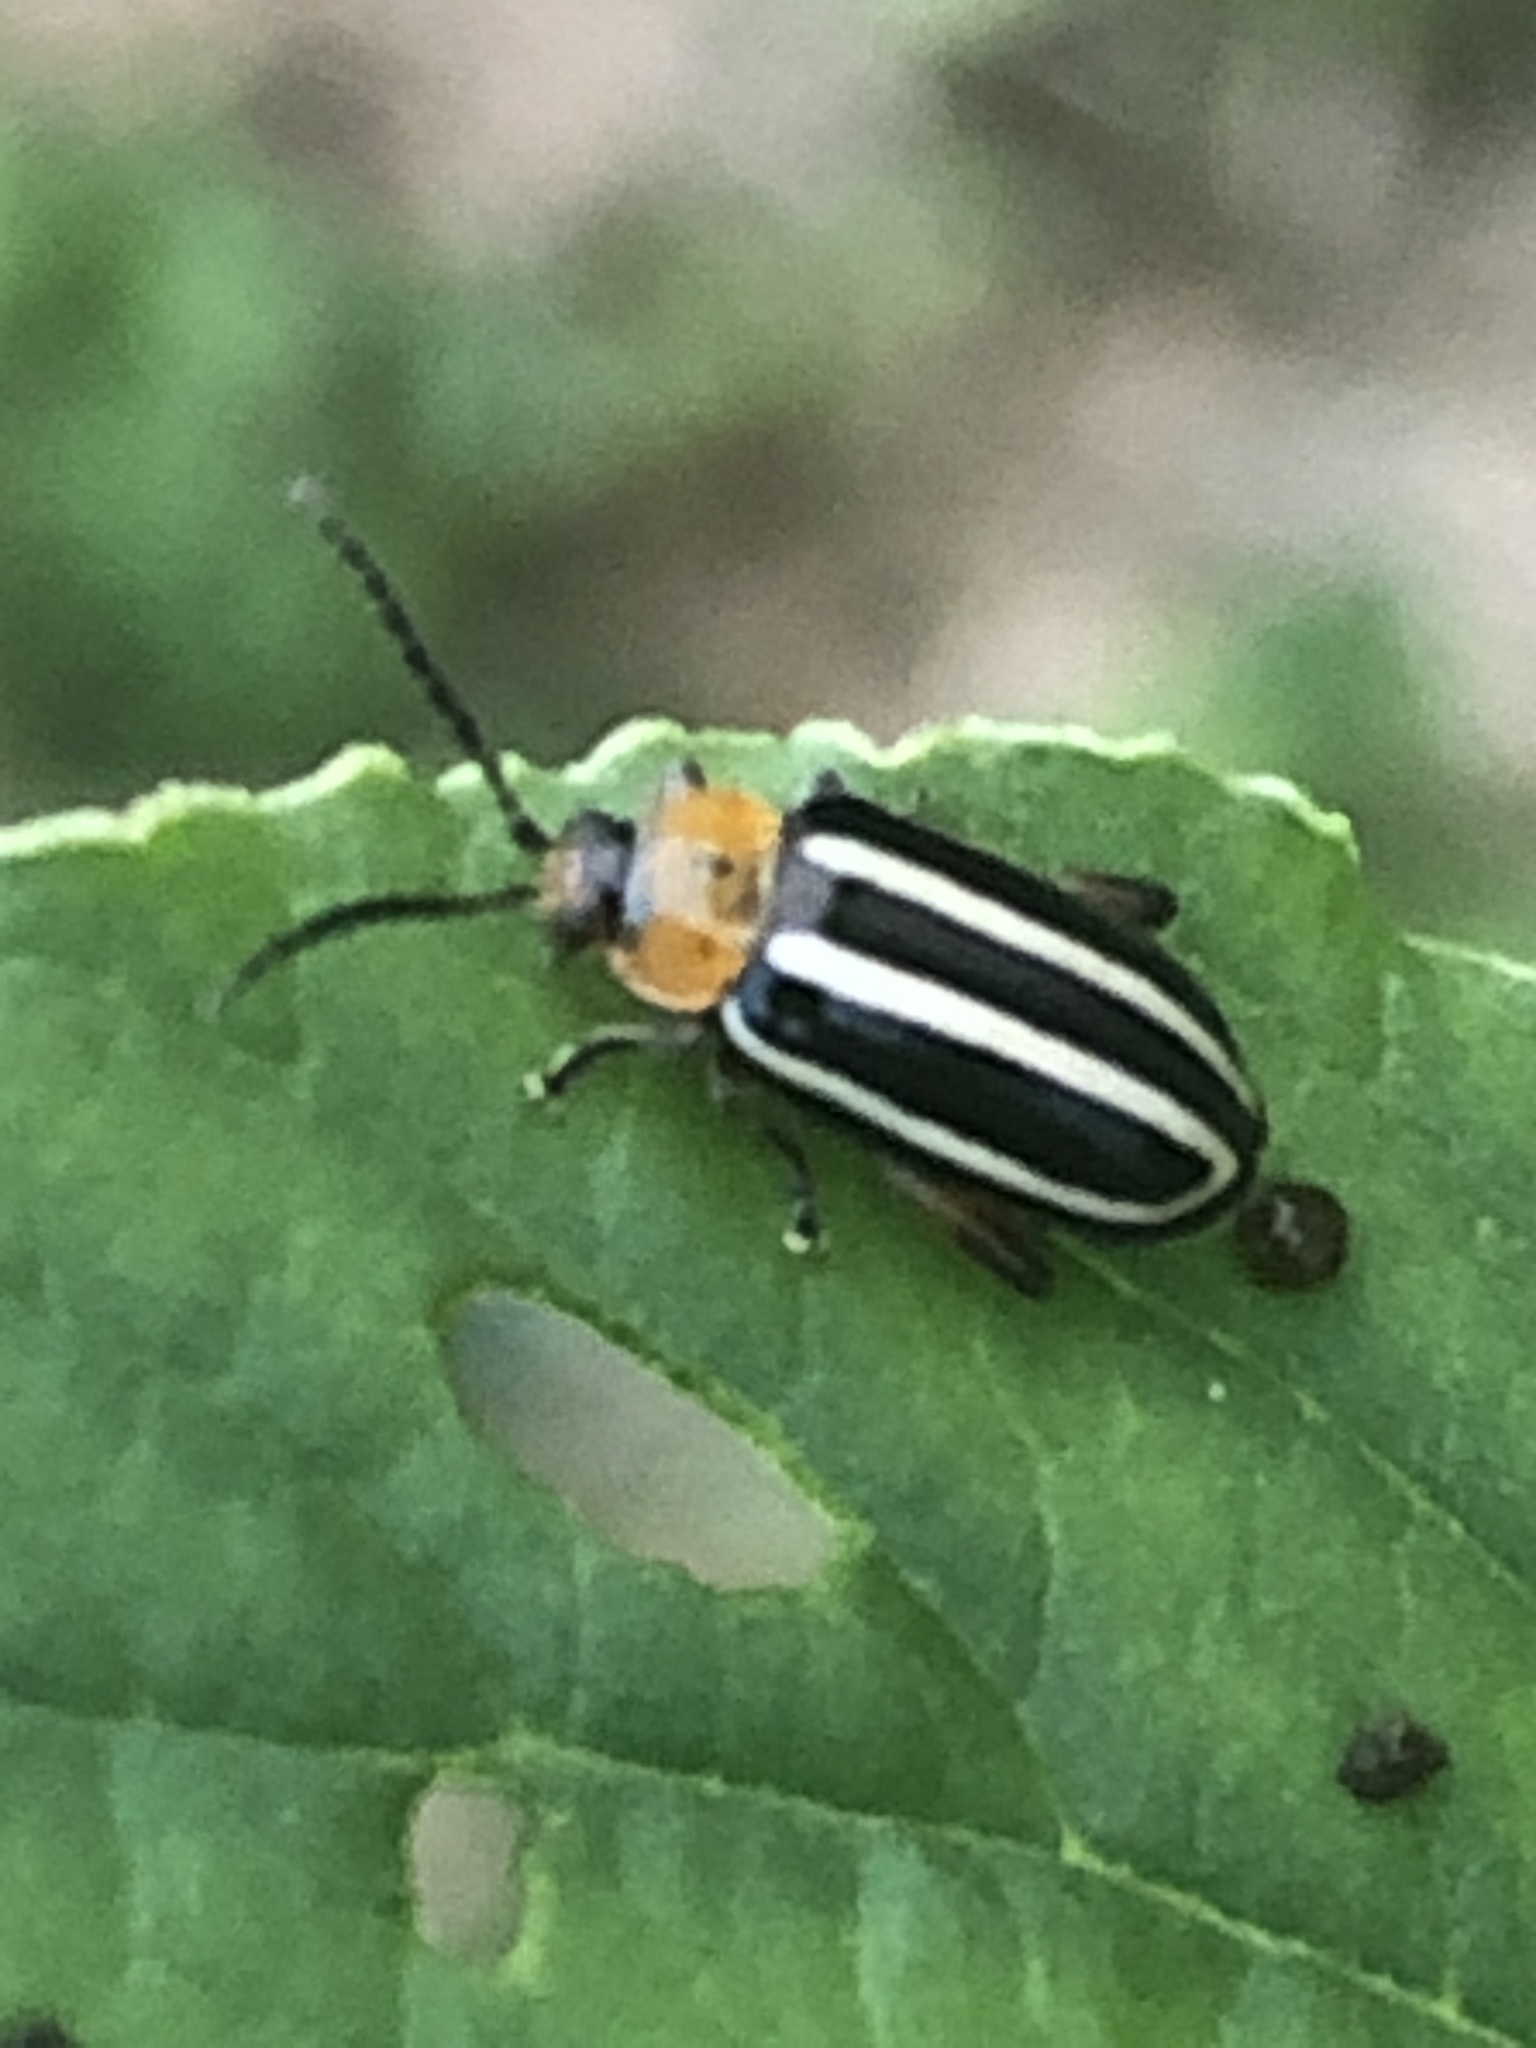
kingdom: Animalia
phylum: Arthropoda
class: Insecta
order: Coleoptera
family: Chrysomelidae
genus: Disonycha
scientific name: Disonycha glabrata
